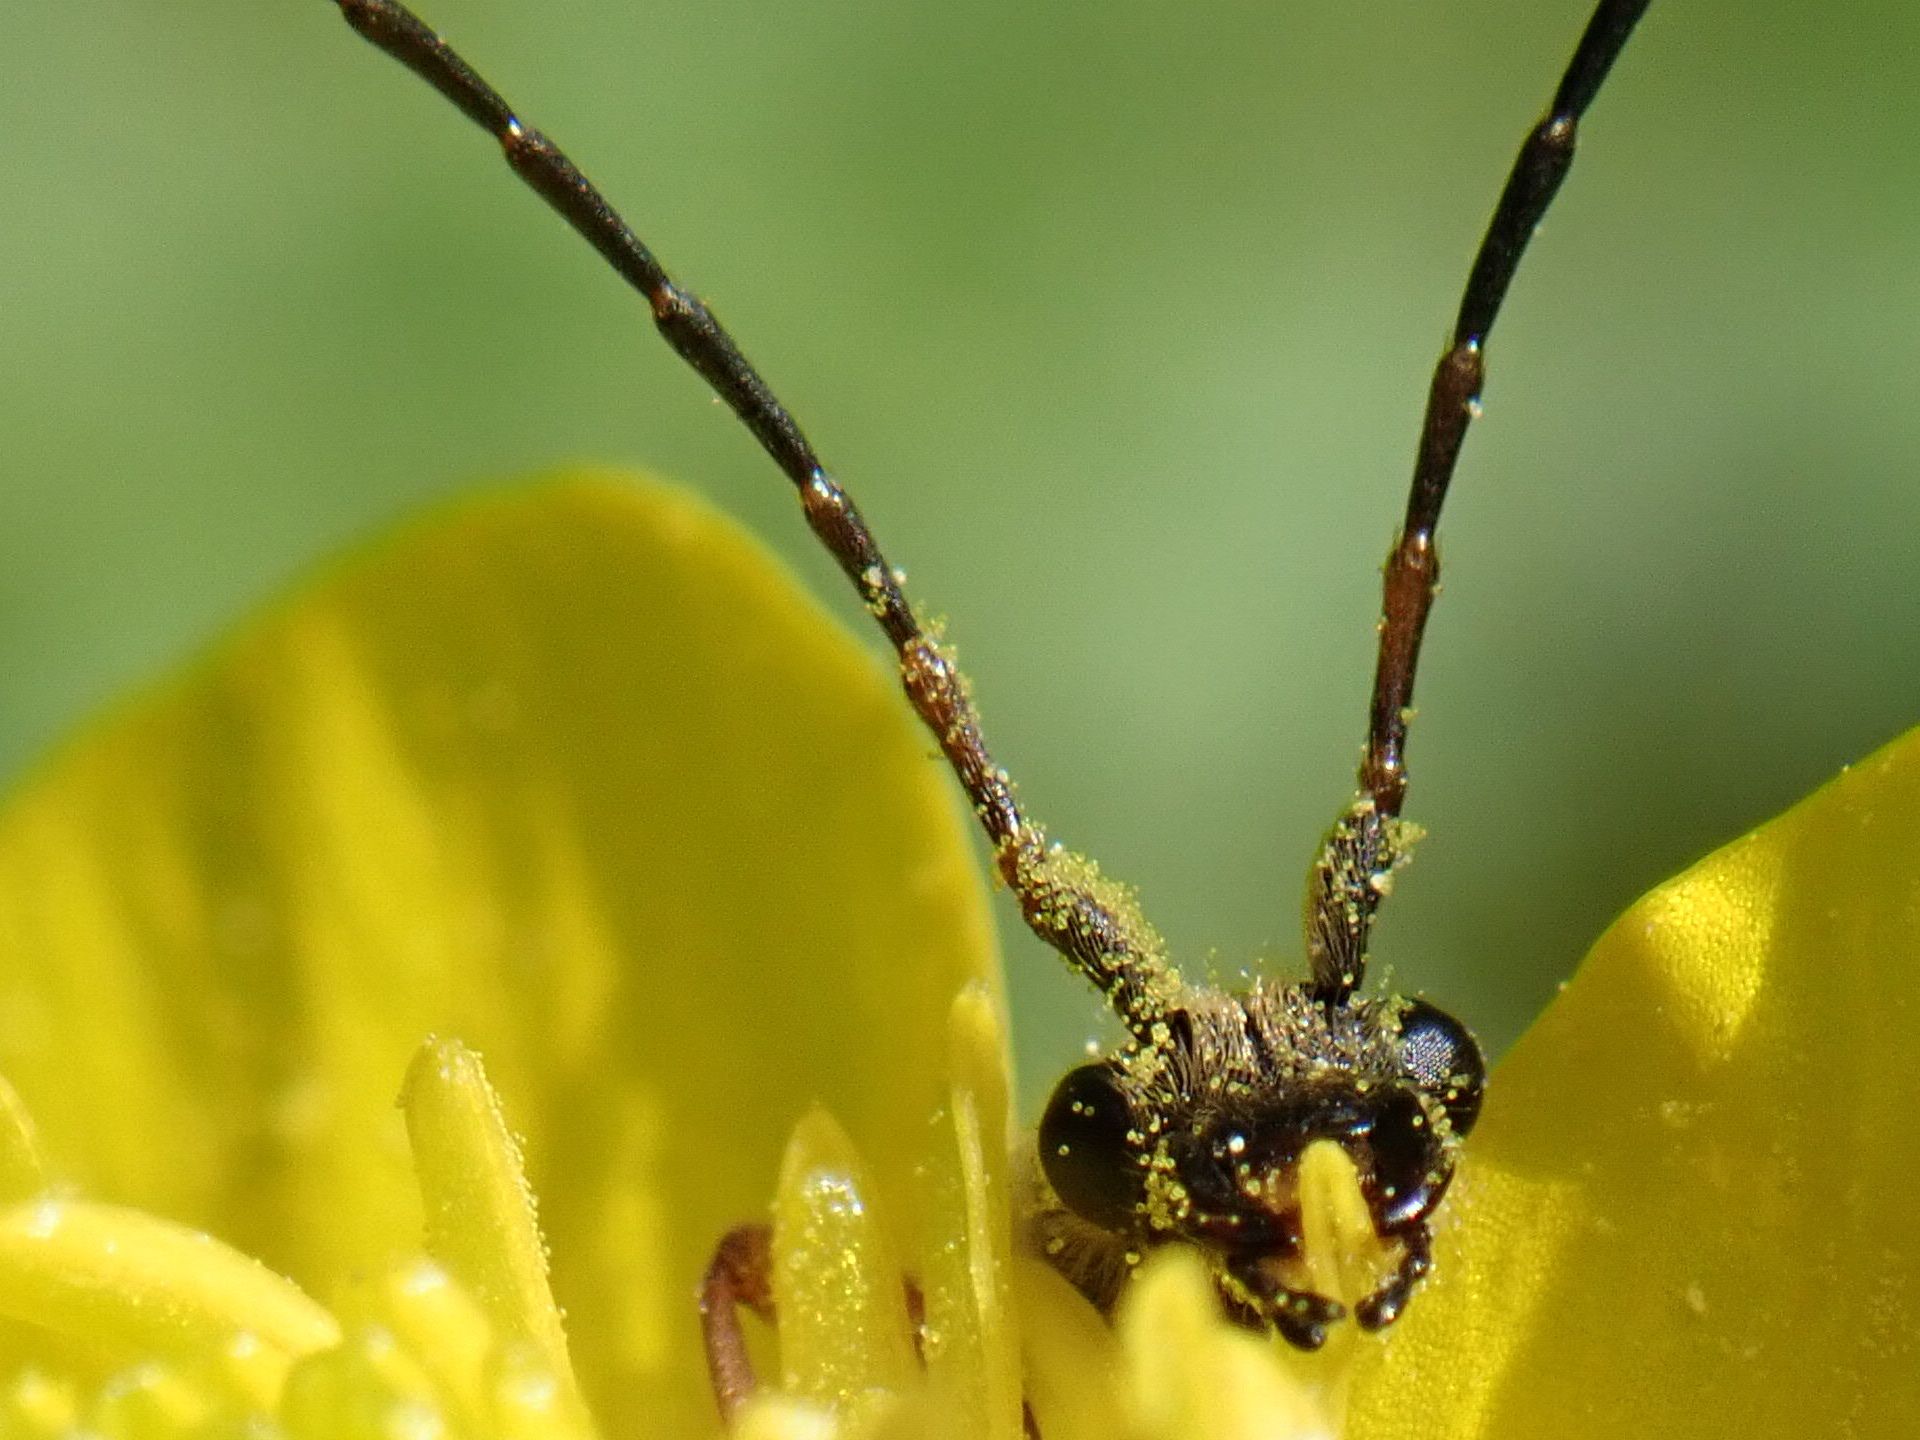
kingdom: Animalia
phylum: Arthropoda
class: Insecta
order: Coleoptera
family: Cerambycidae
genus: Cortodera
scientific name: Cortodera flavimana
